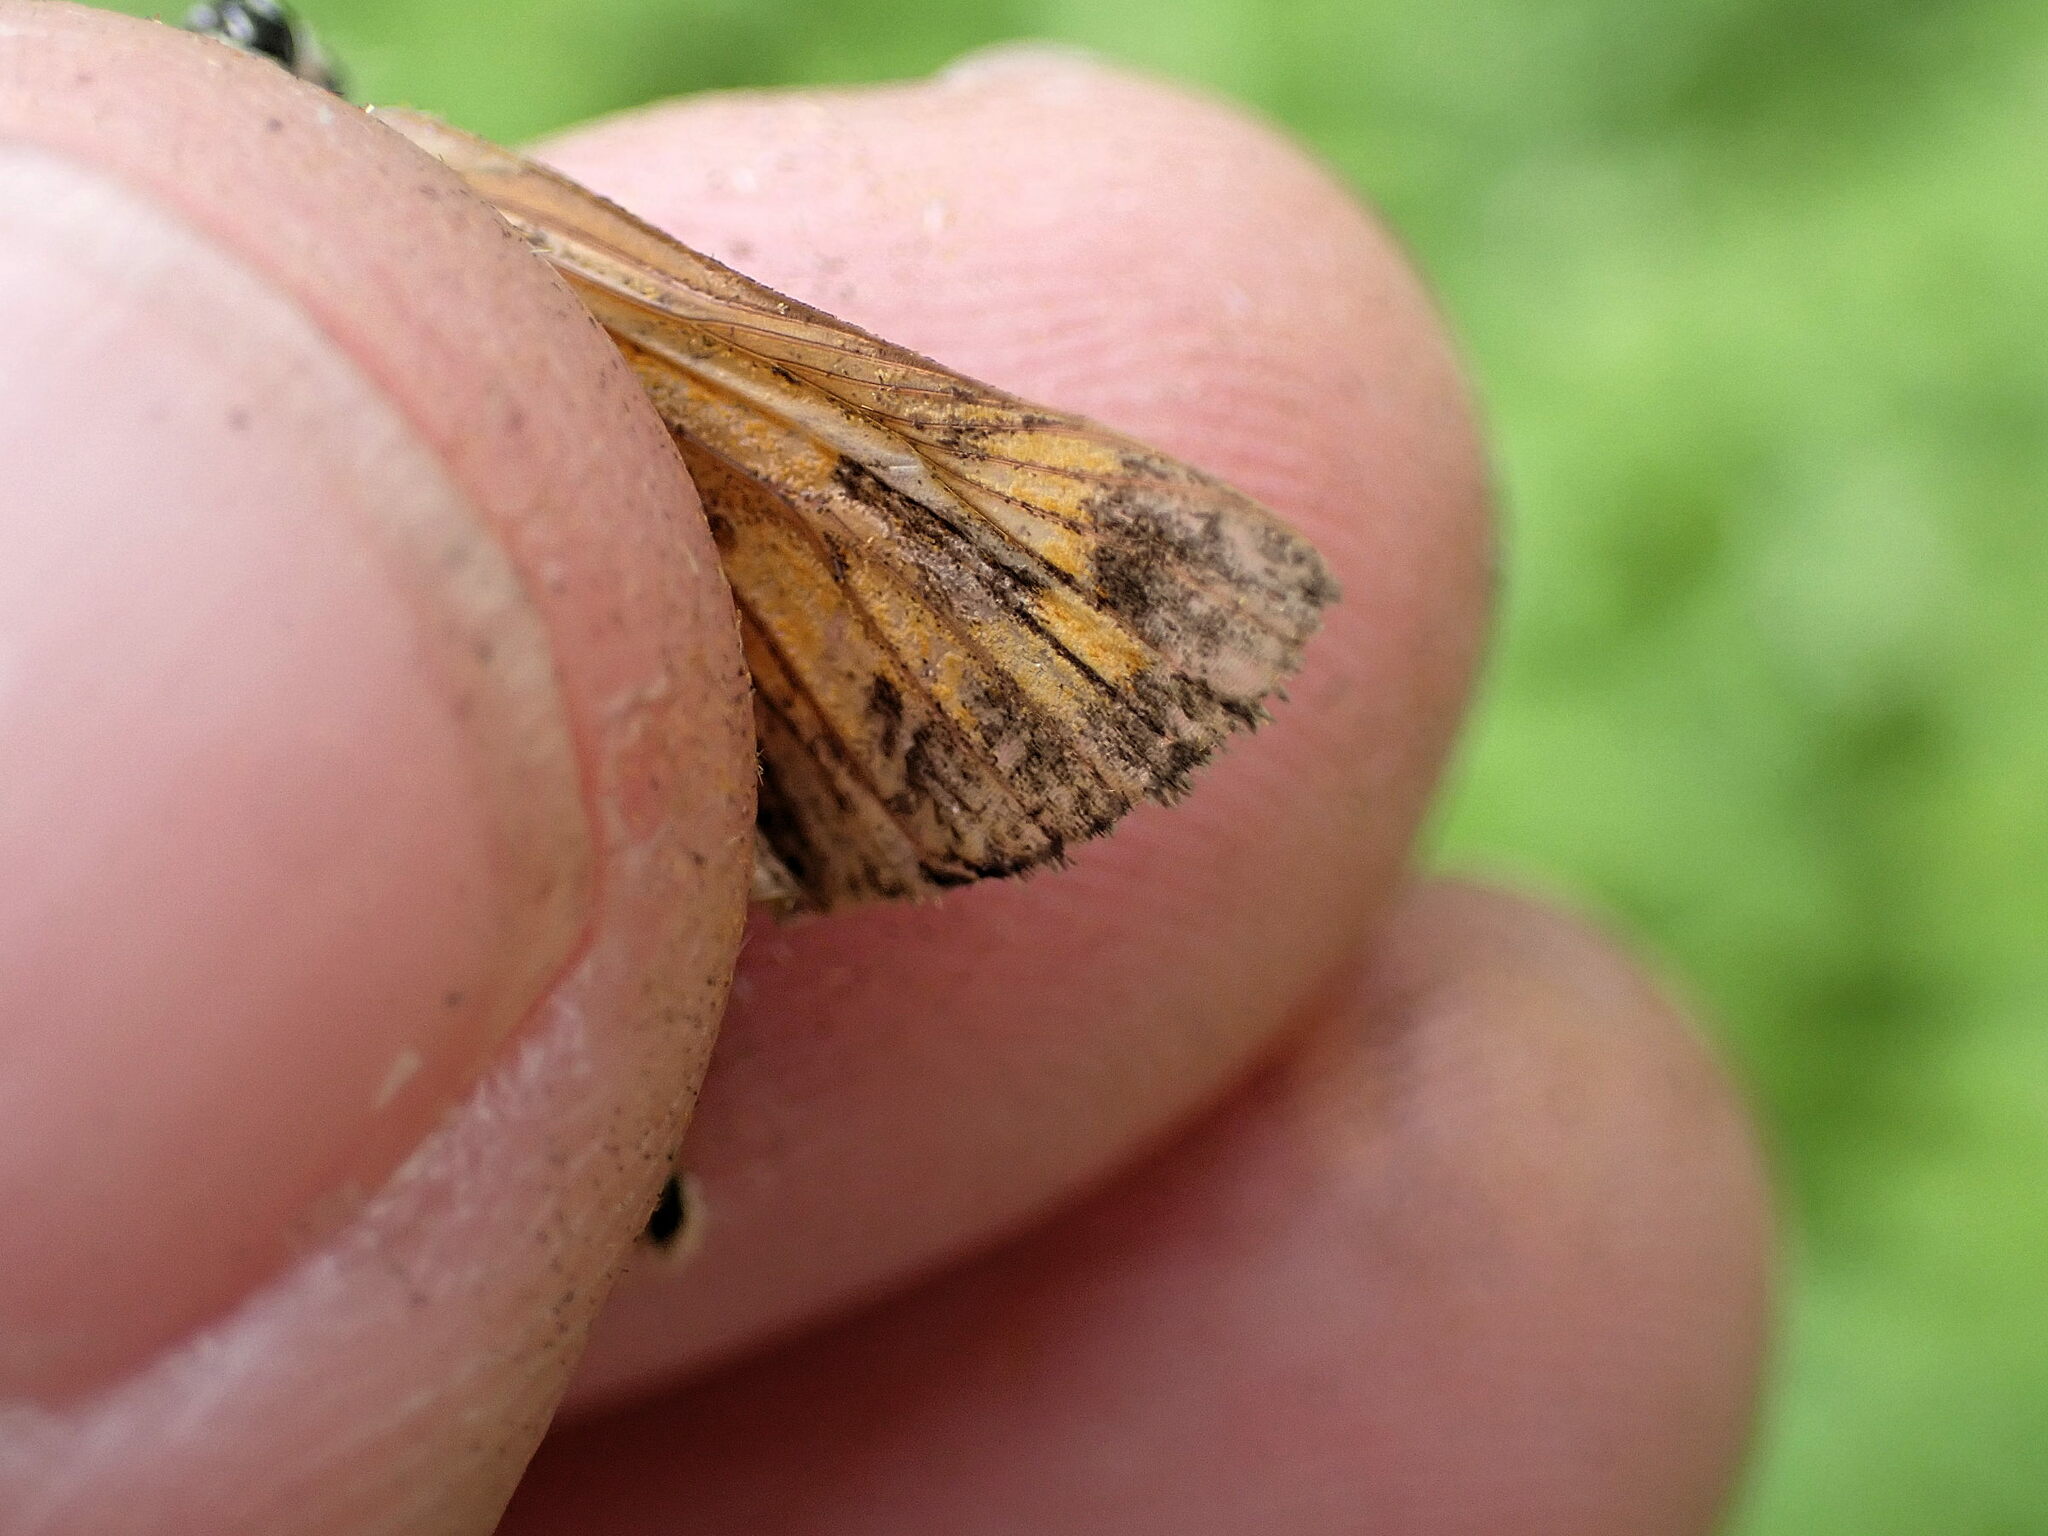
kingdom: Animalia
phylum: Arthropoda
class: Insecta
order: Lepidoptera
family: Hesperiidae
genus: Ochlodes
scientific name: Ochlodes venata
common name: Large skipper
